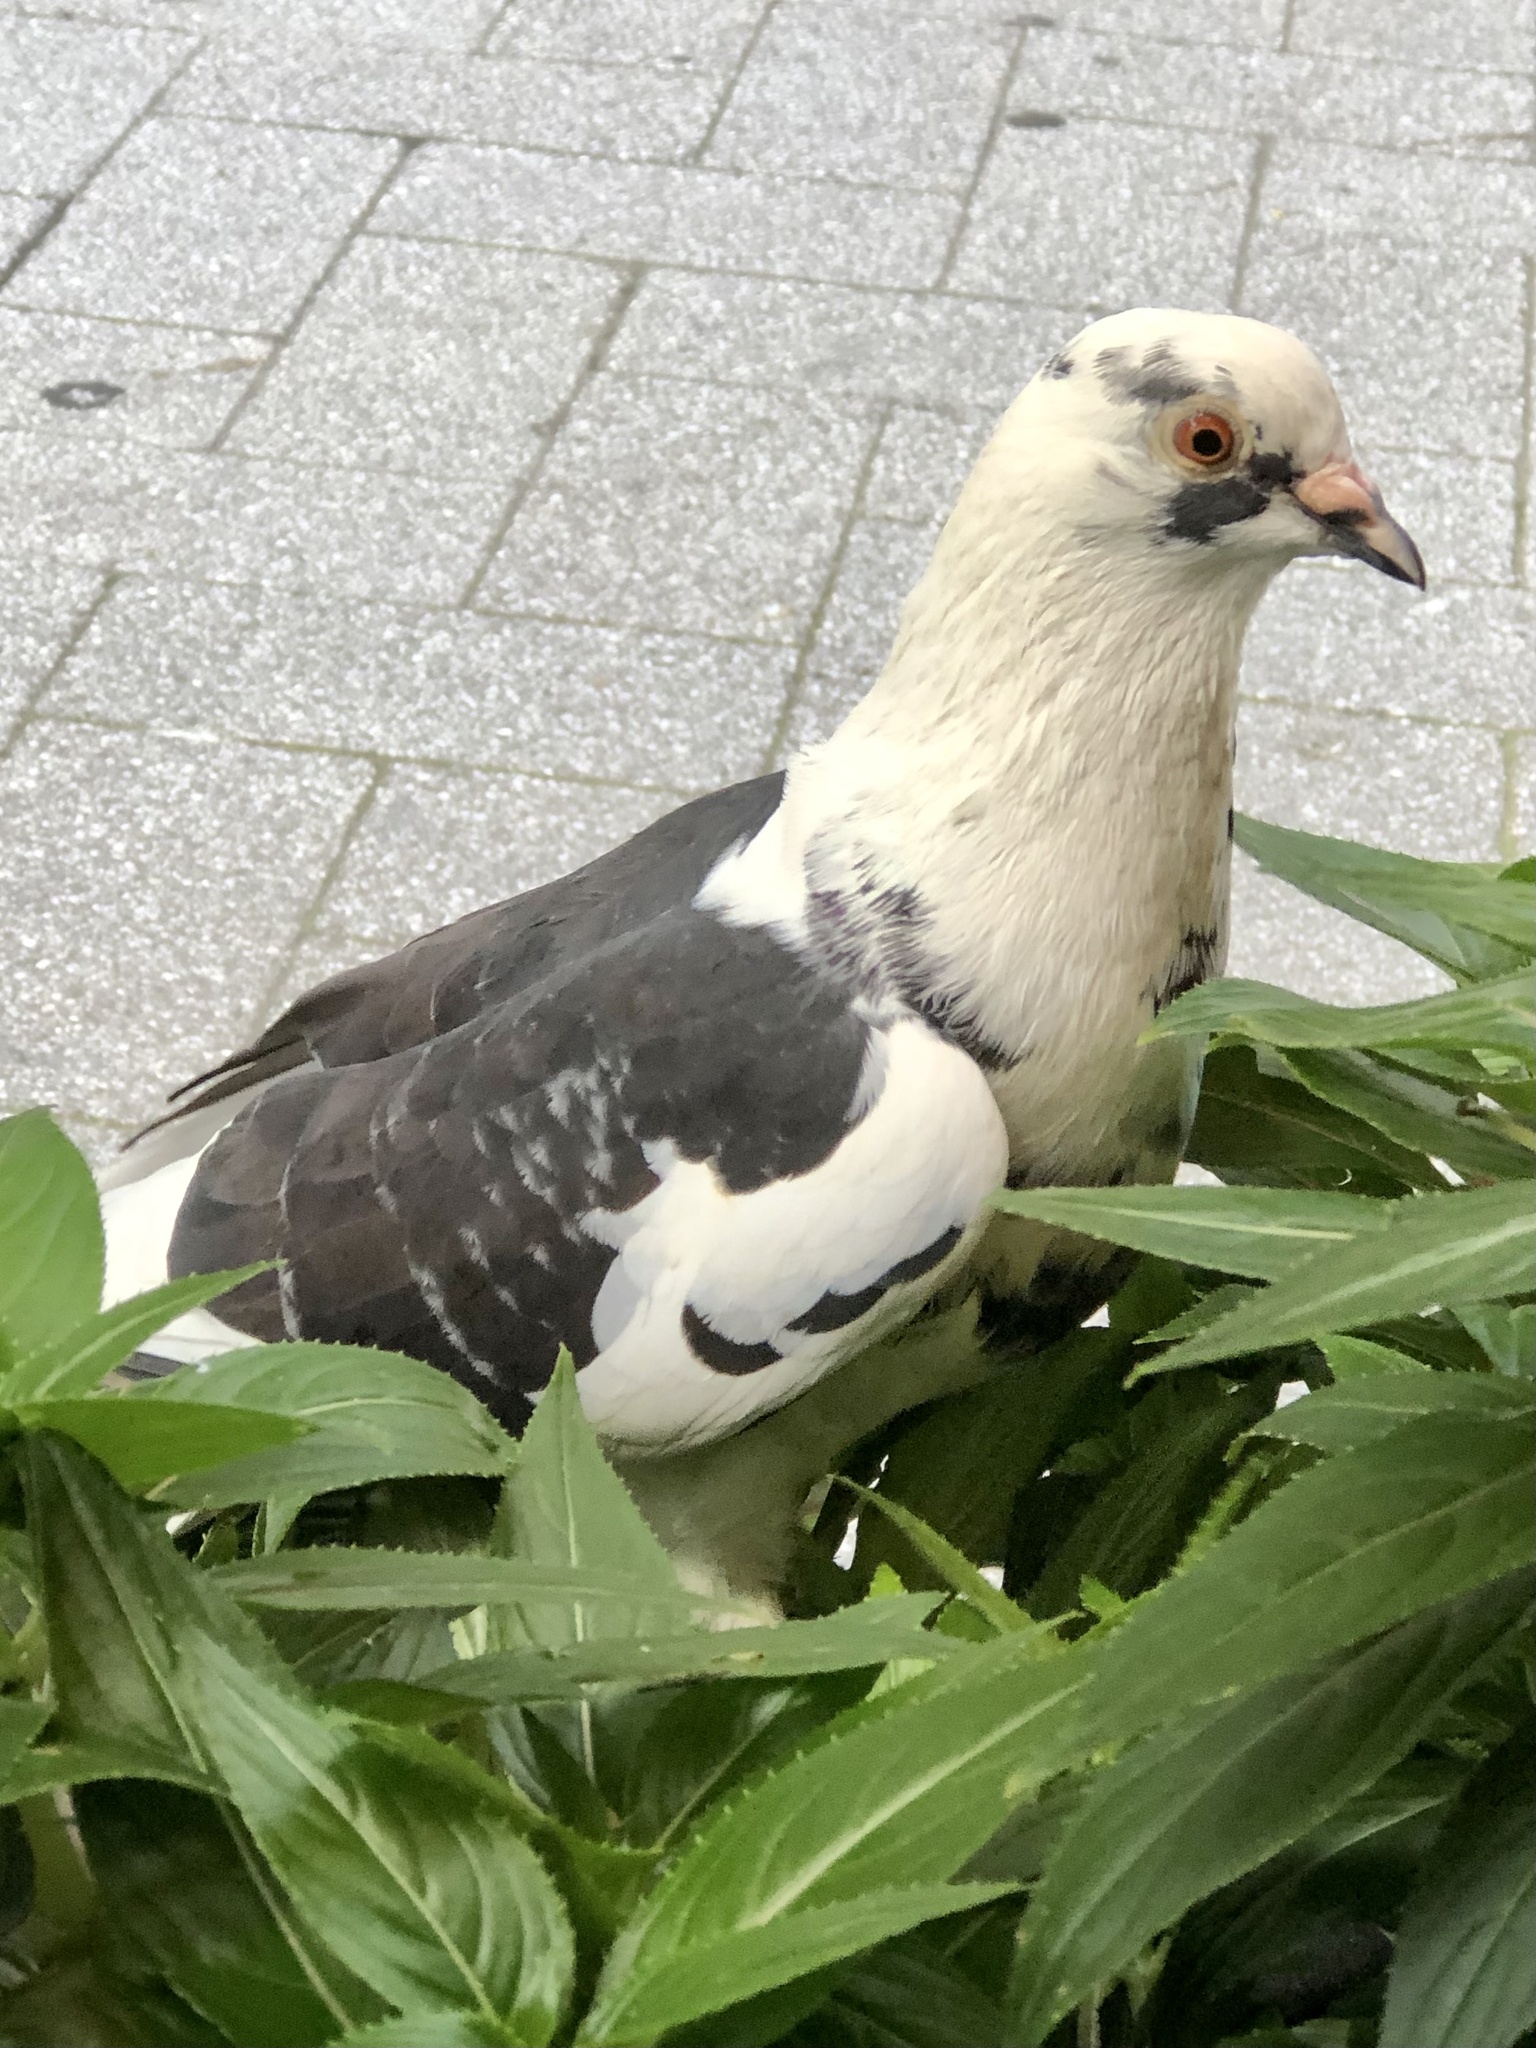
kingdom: Animalia
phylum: Chordata
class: Aves
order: Columbiformes
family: Columbidae
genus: Columba
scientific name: Columba livia
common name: Rock pigeon
